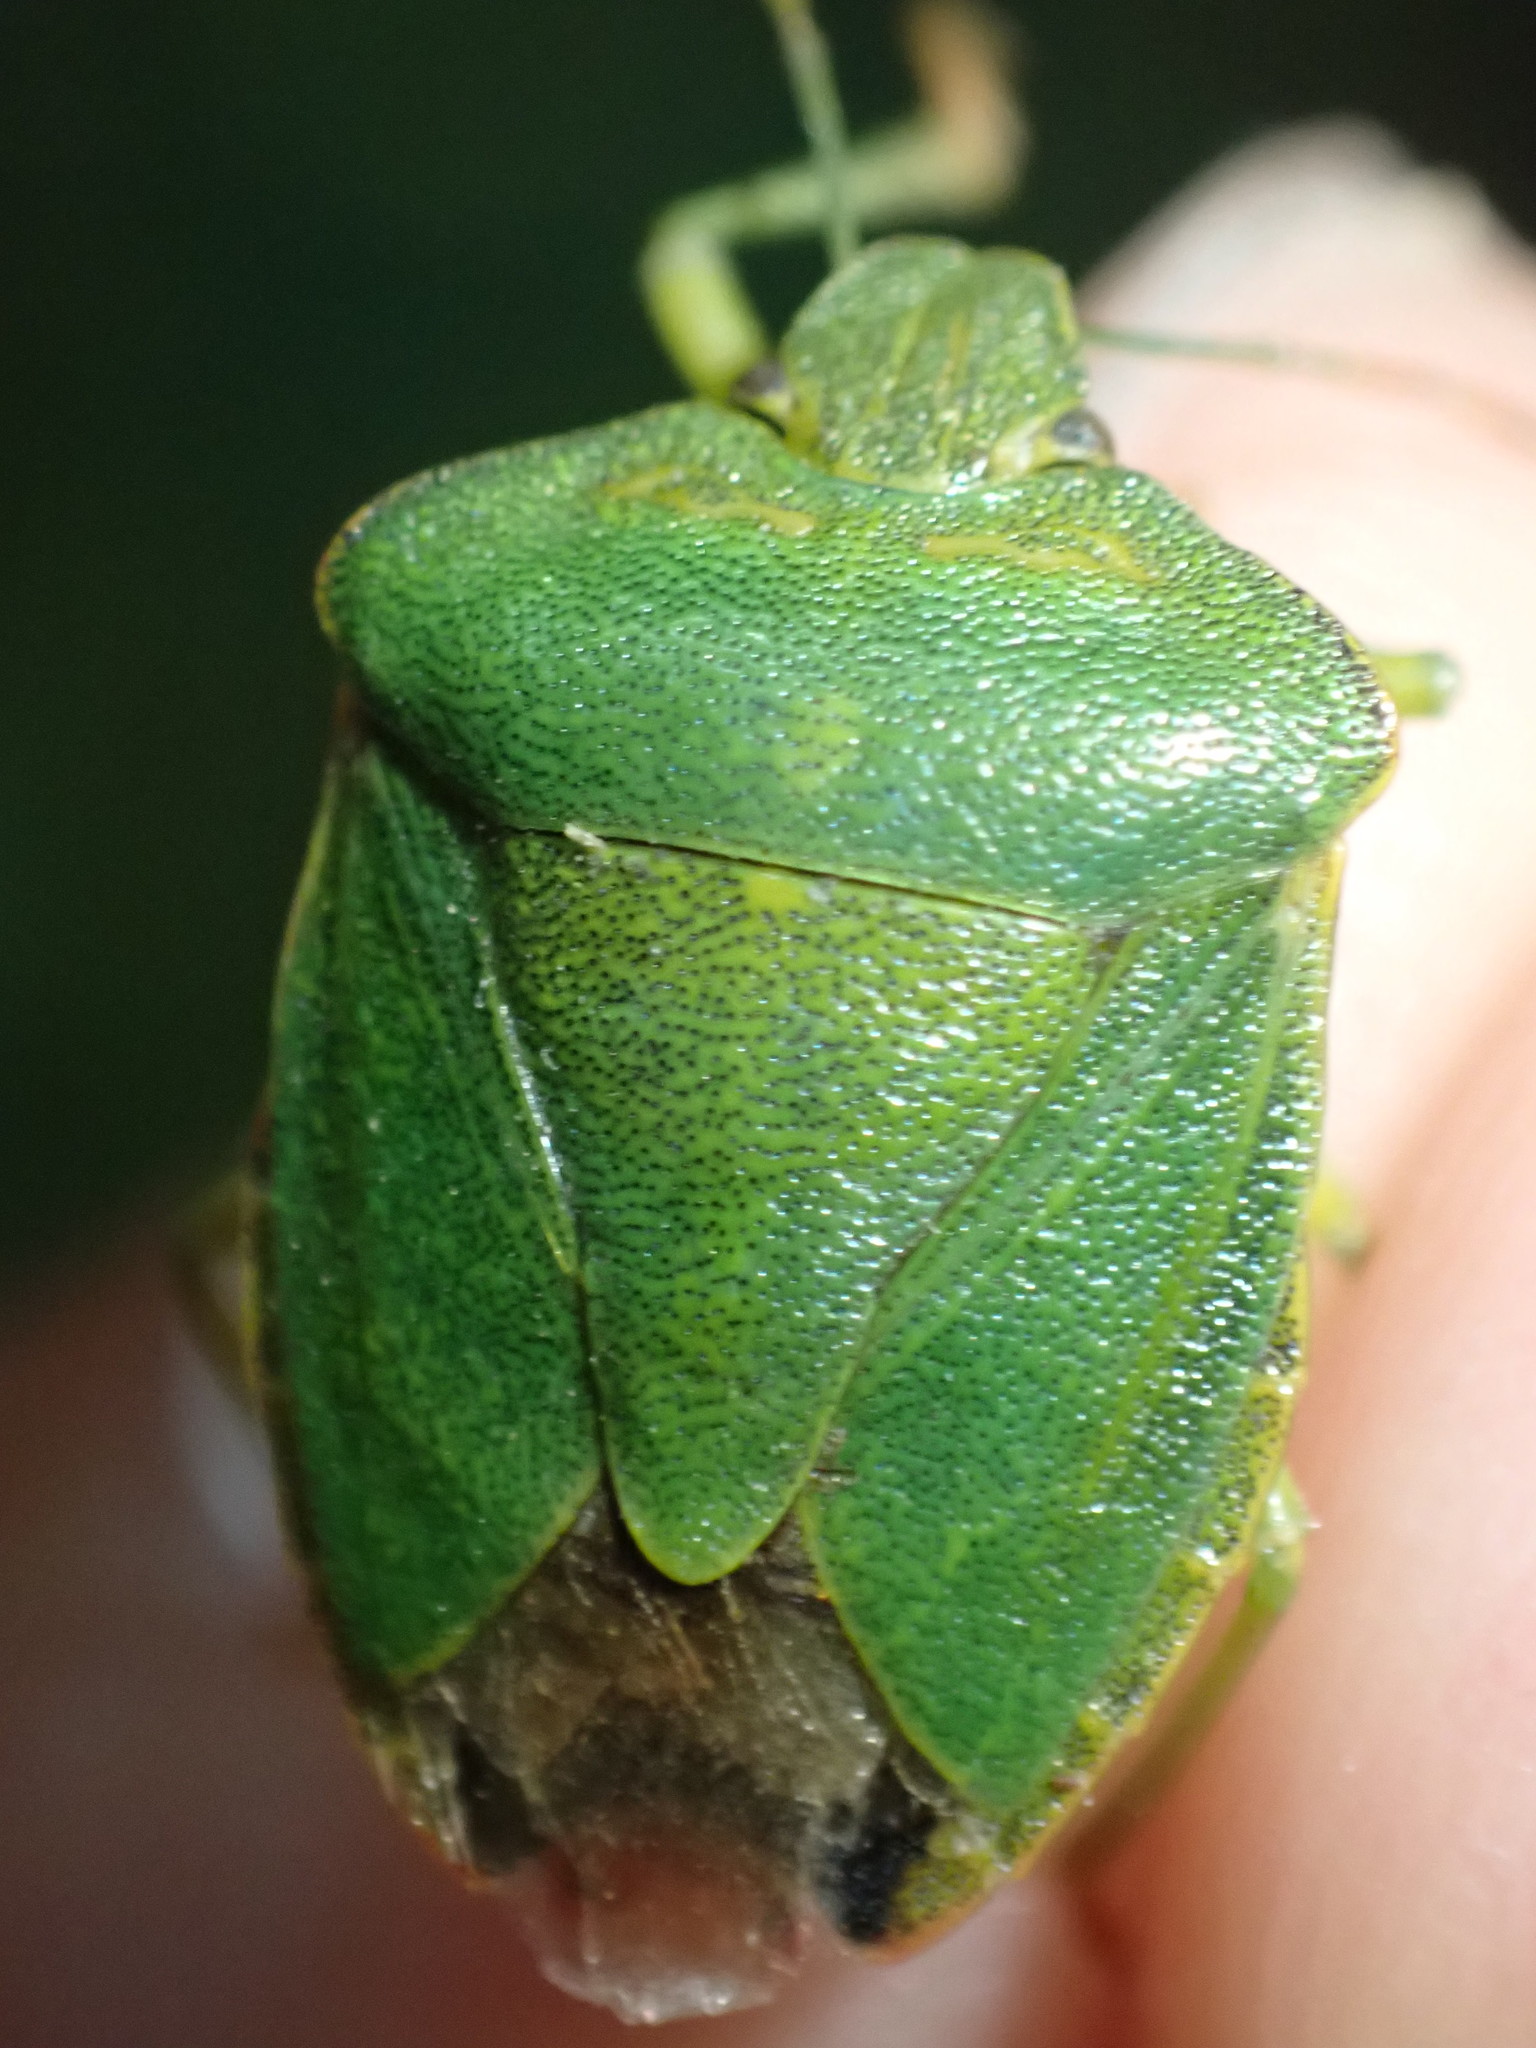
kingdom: Animalia
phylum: Arthropoda
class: Insecta
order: Hemiptera
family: Pentatomidae
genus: Palomena
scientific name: Palomena prasina
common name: Green shieldbug
